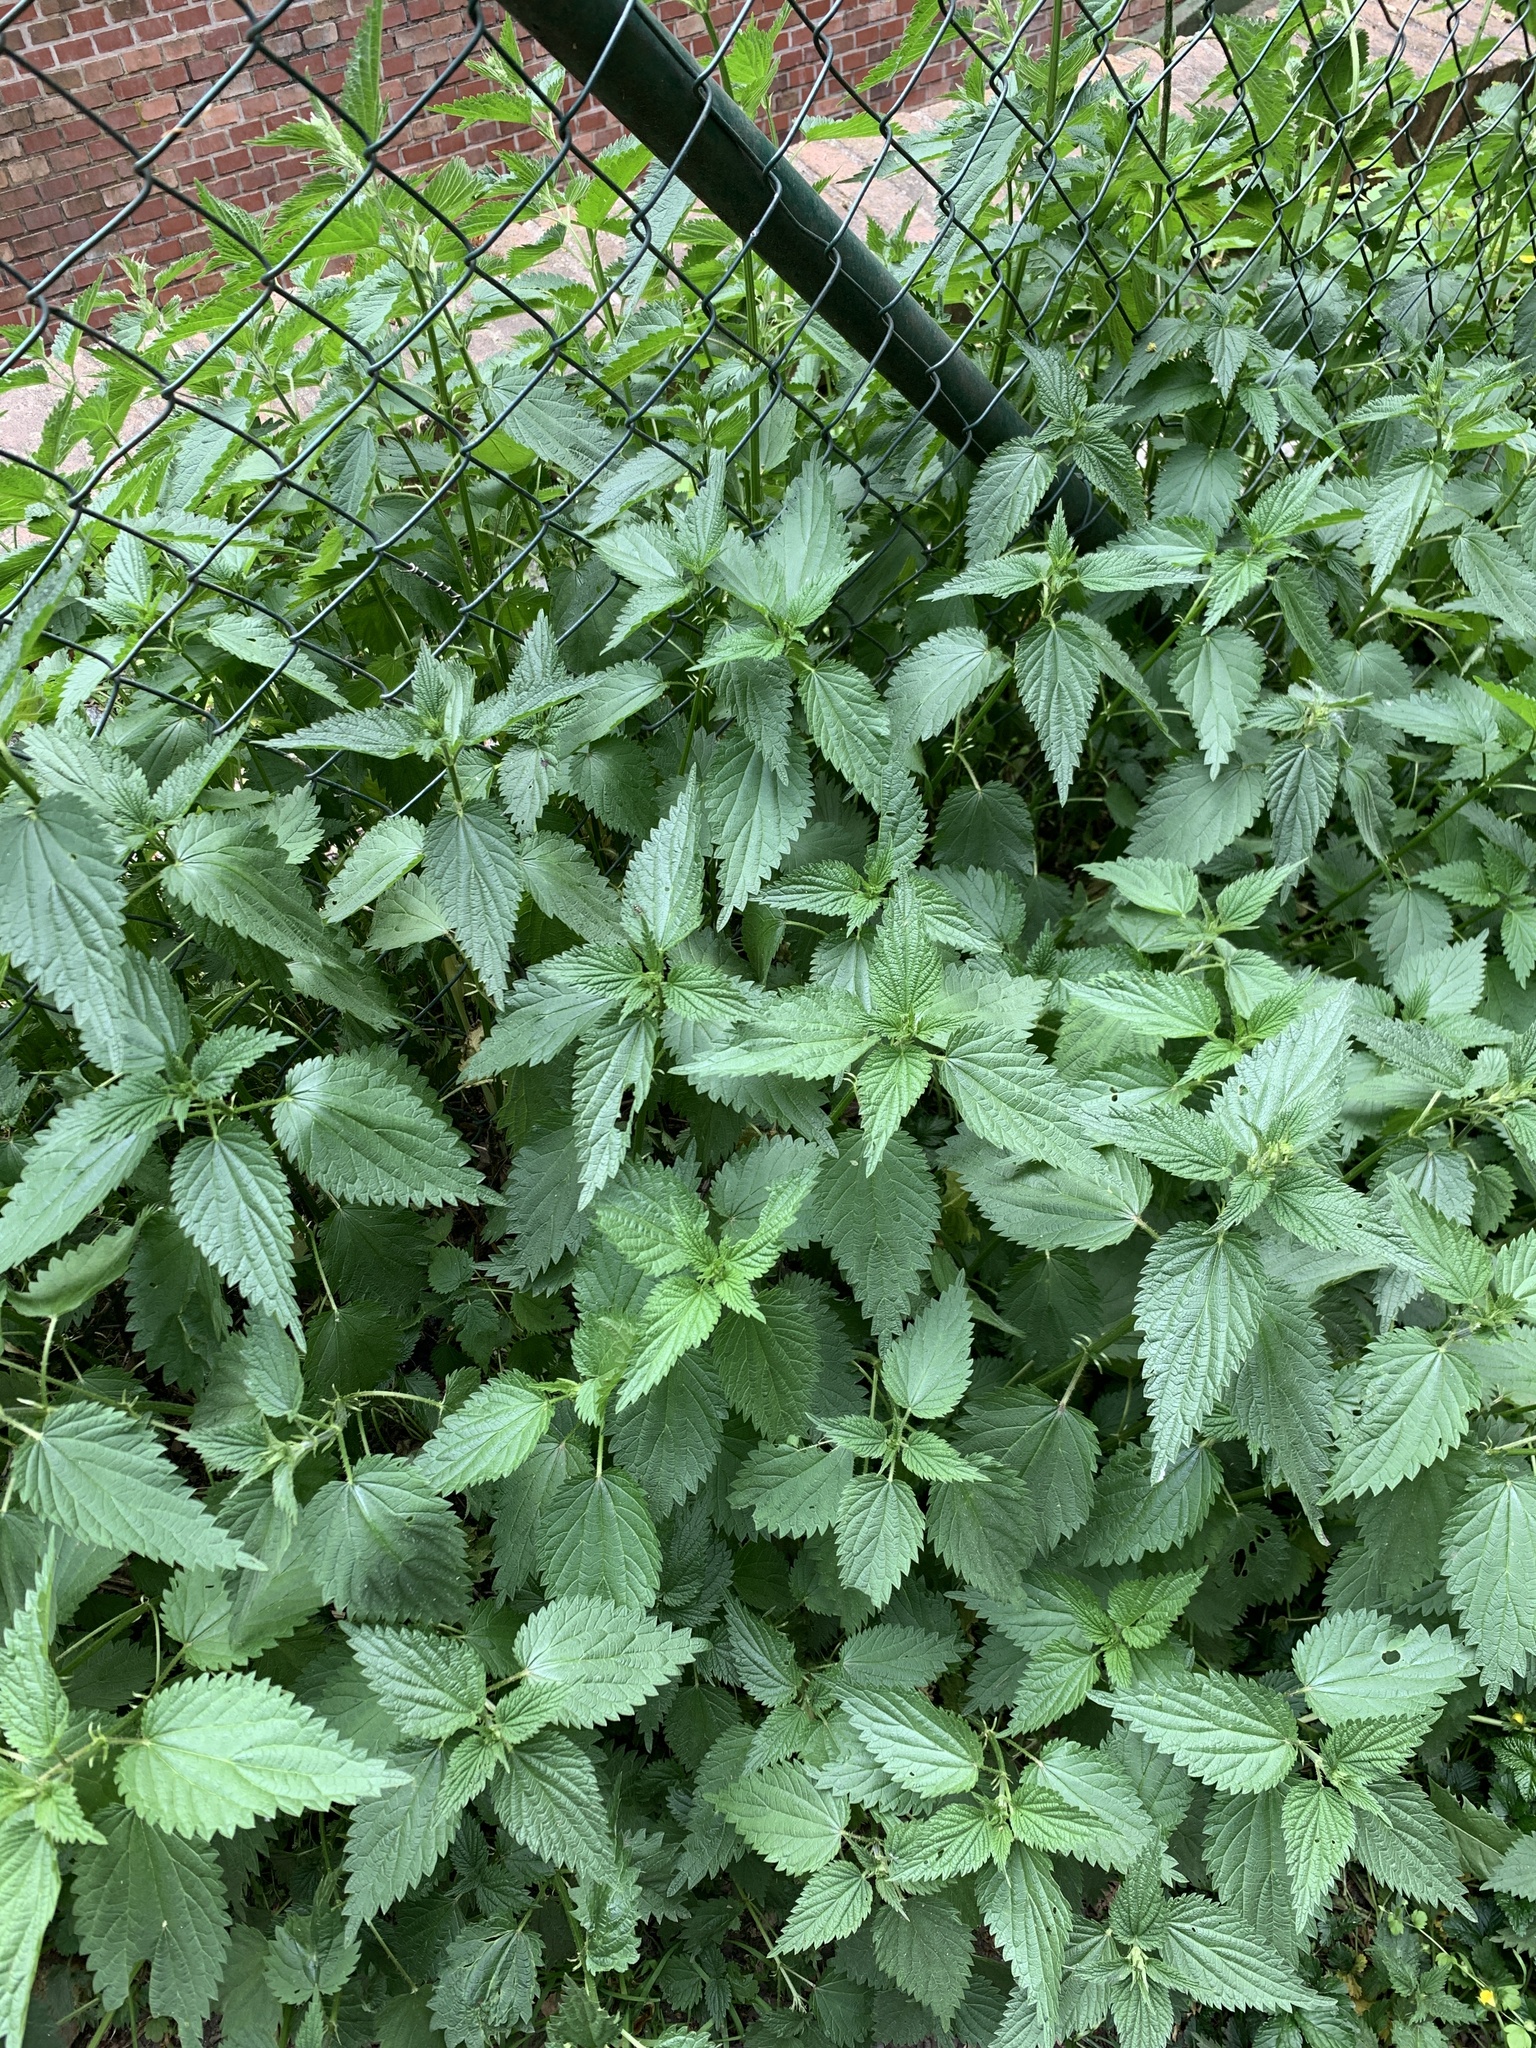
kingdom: Plantae
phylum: Tracheophyta
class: Magnoliopsida
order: Rosales
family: Urticaceae
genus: Urtica
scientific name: Urtica dioica
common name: Common nettle
